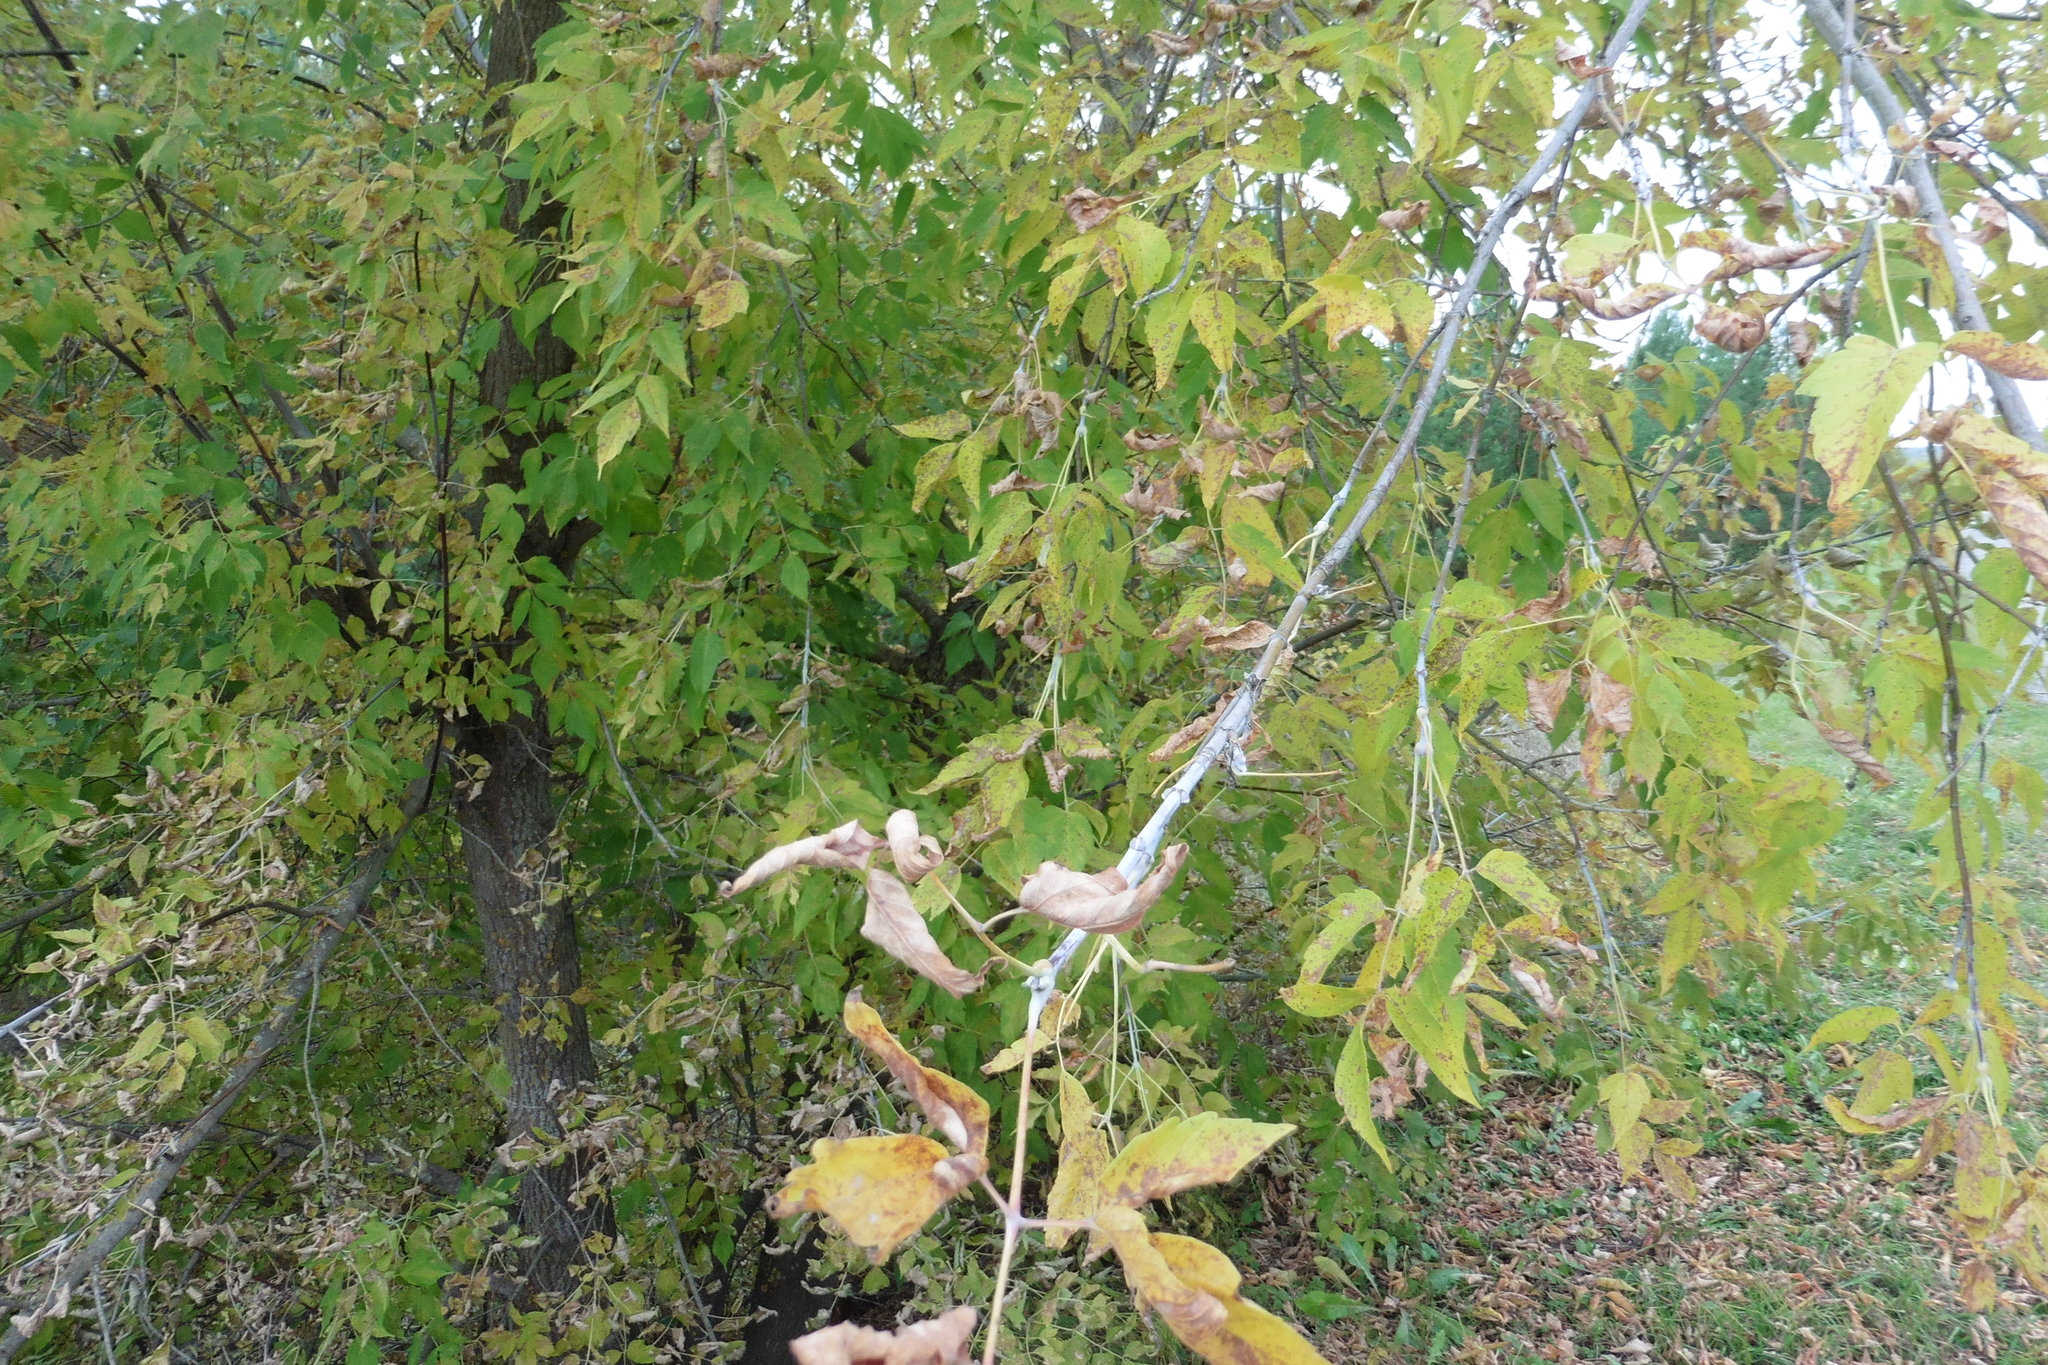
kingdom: Plantae
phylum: Tracheophyta
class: Magnoliopsida
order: Sapindales
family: Sapindaceae
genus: Acer
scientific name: Acer negundo
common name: Ashleaf maple
